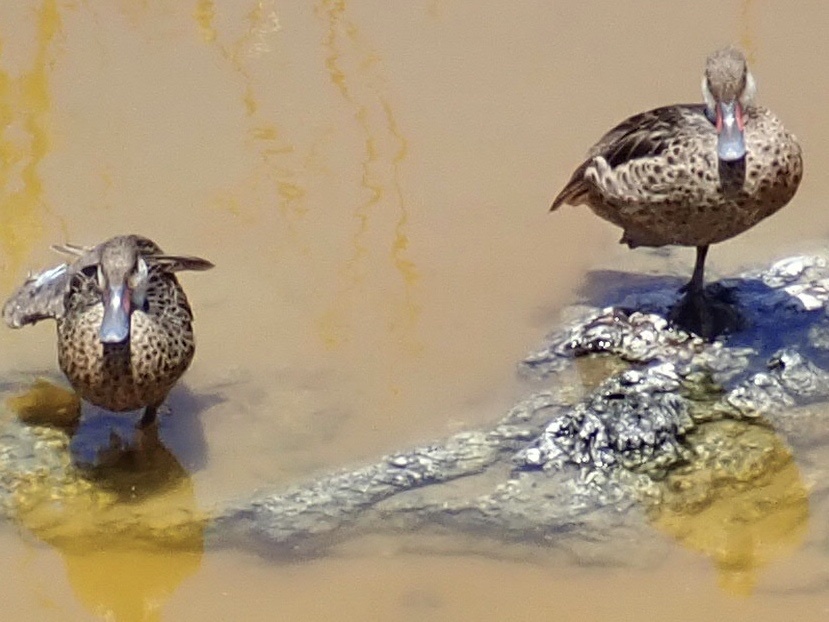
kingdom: Animalia
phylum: Chordata
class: Aves
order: Anseriformes
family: Anatidae
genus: Anas
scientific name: Anas bahamensis
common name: White-cheeked pintail
